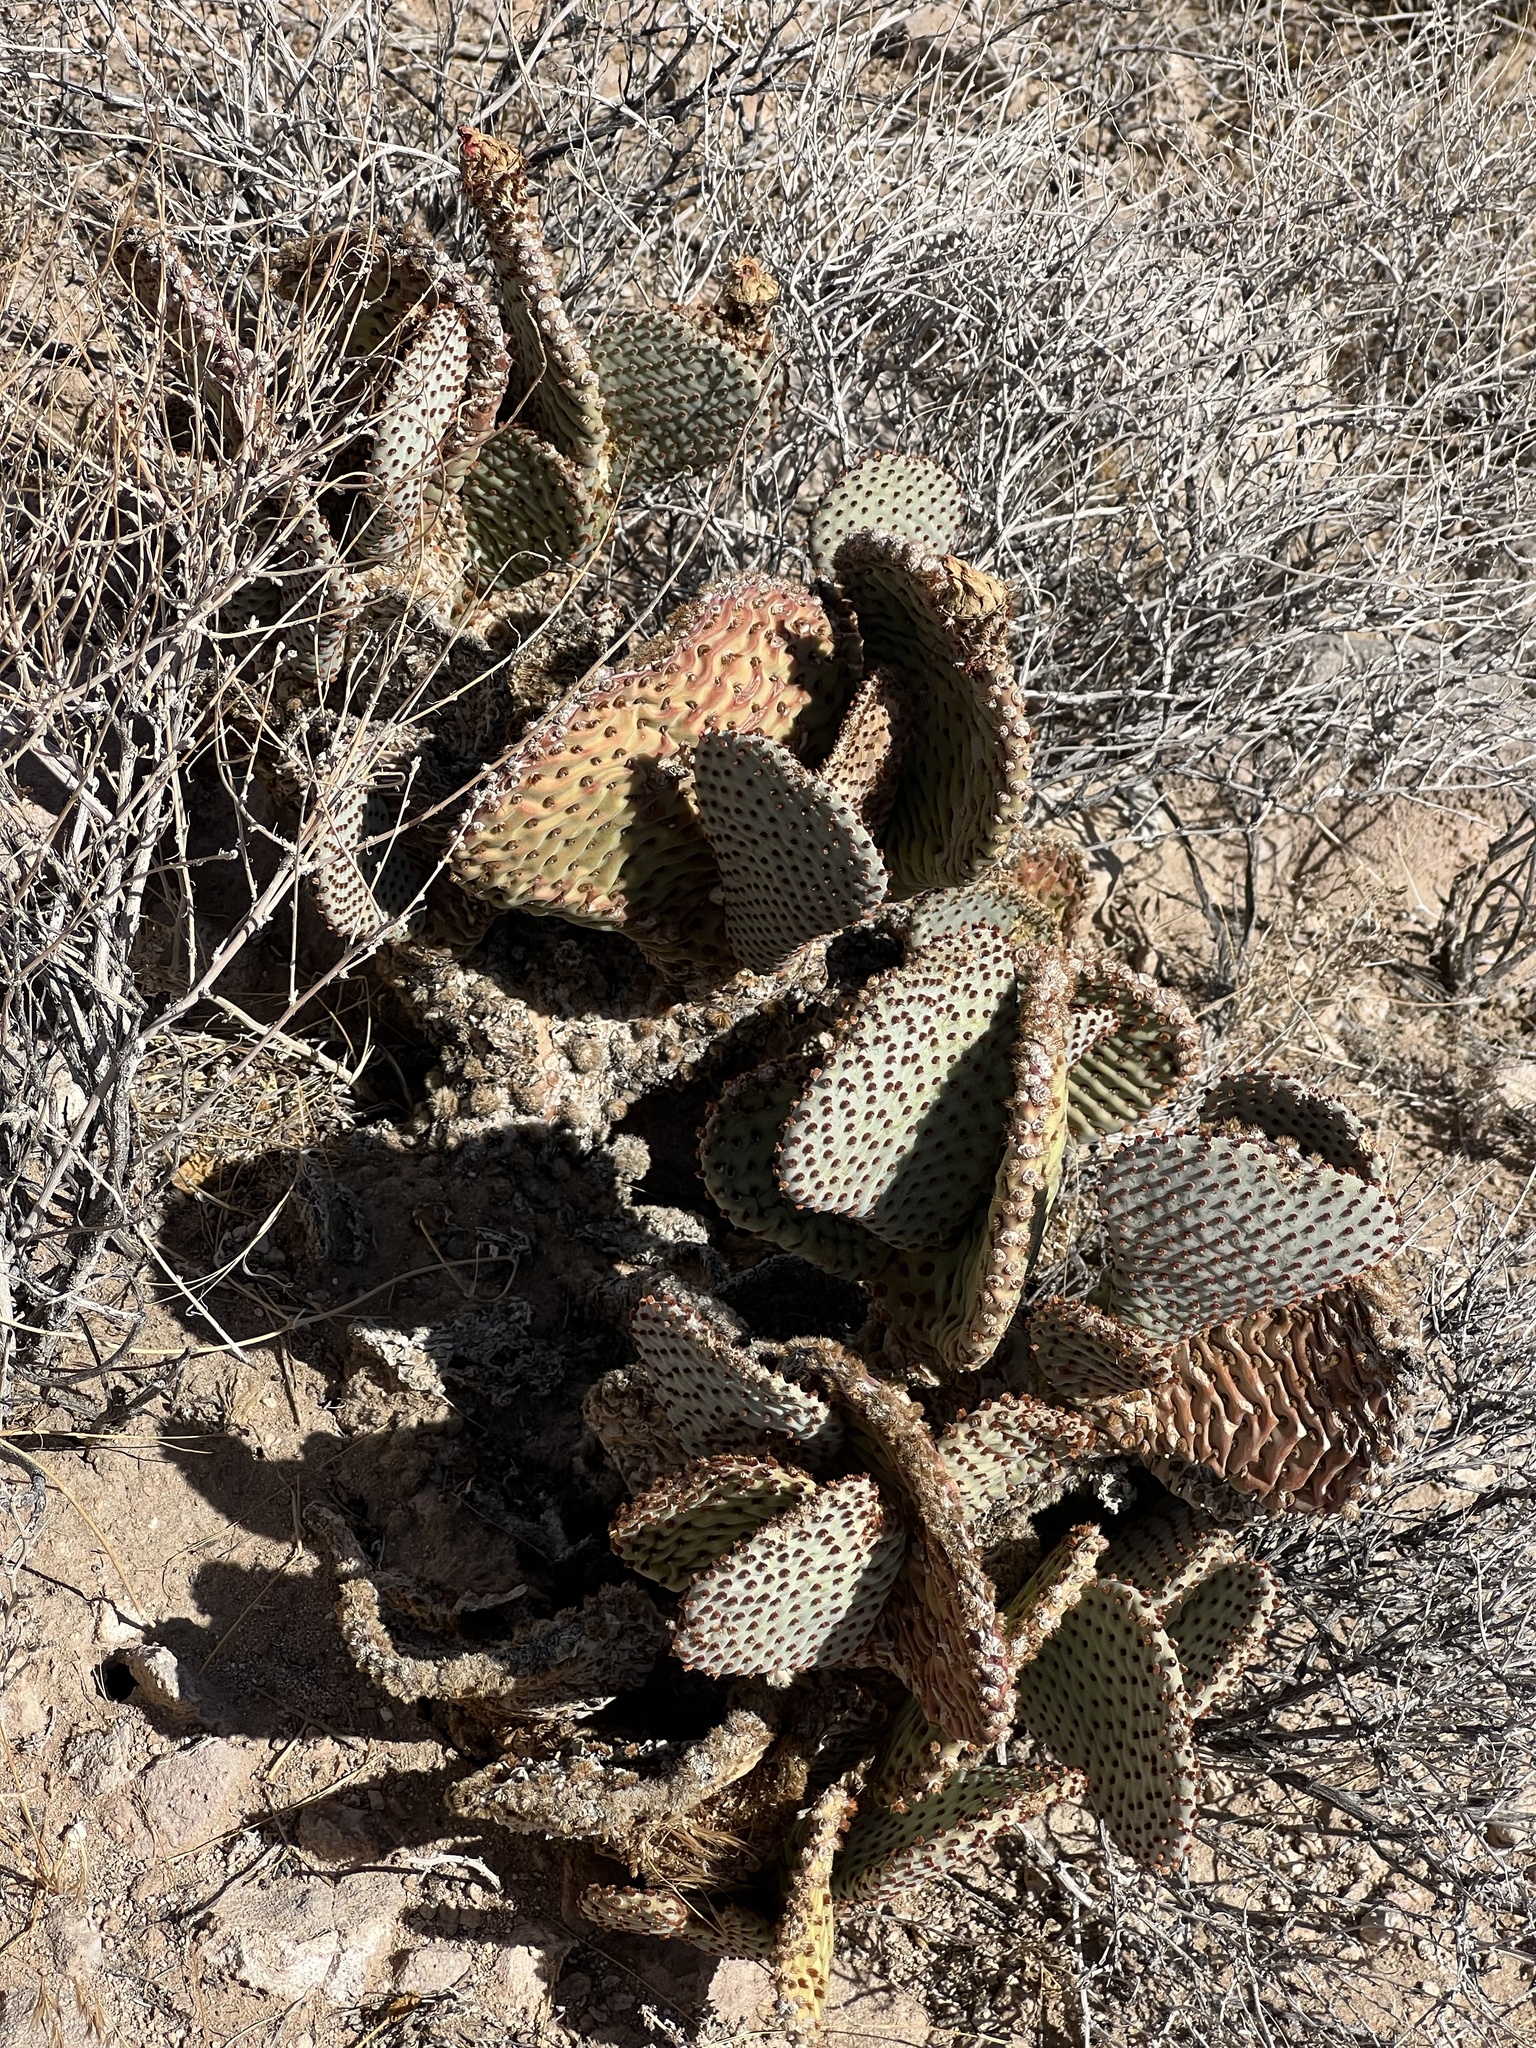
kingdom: Plantae
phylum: Tracheophyta
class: Magnoliopsida
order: Caryophyllales
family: Cactaceae
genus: Opuntia
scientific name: Opuntia basilaris
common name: Beavertail prickly-pear
